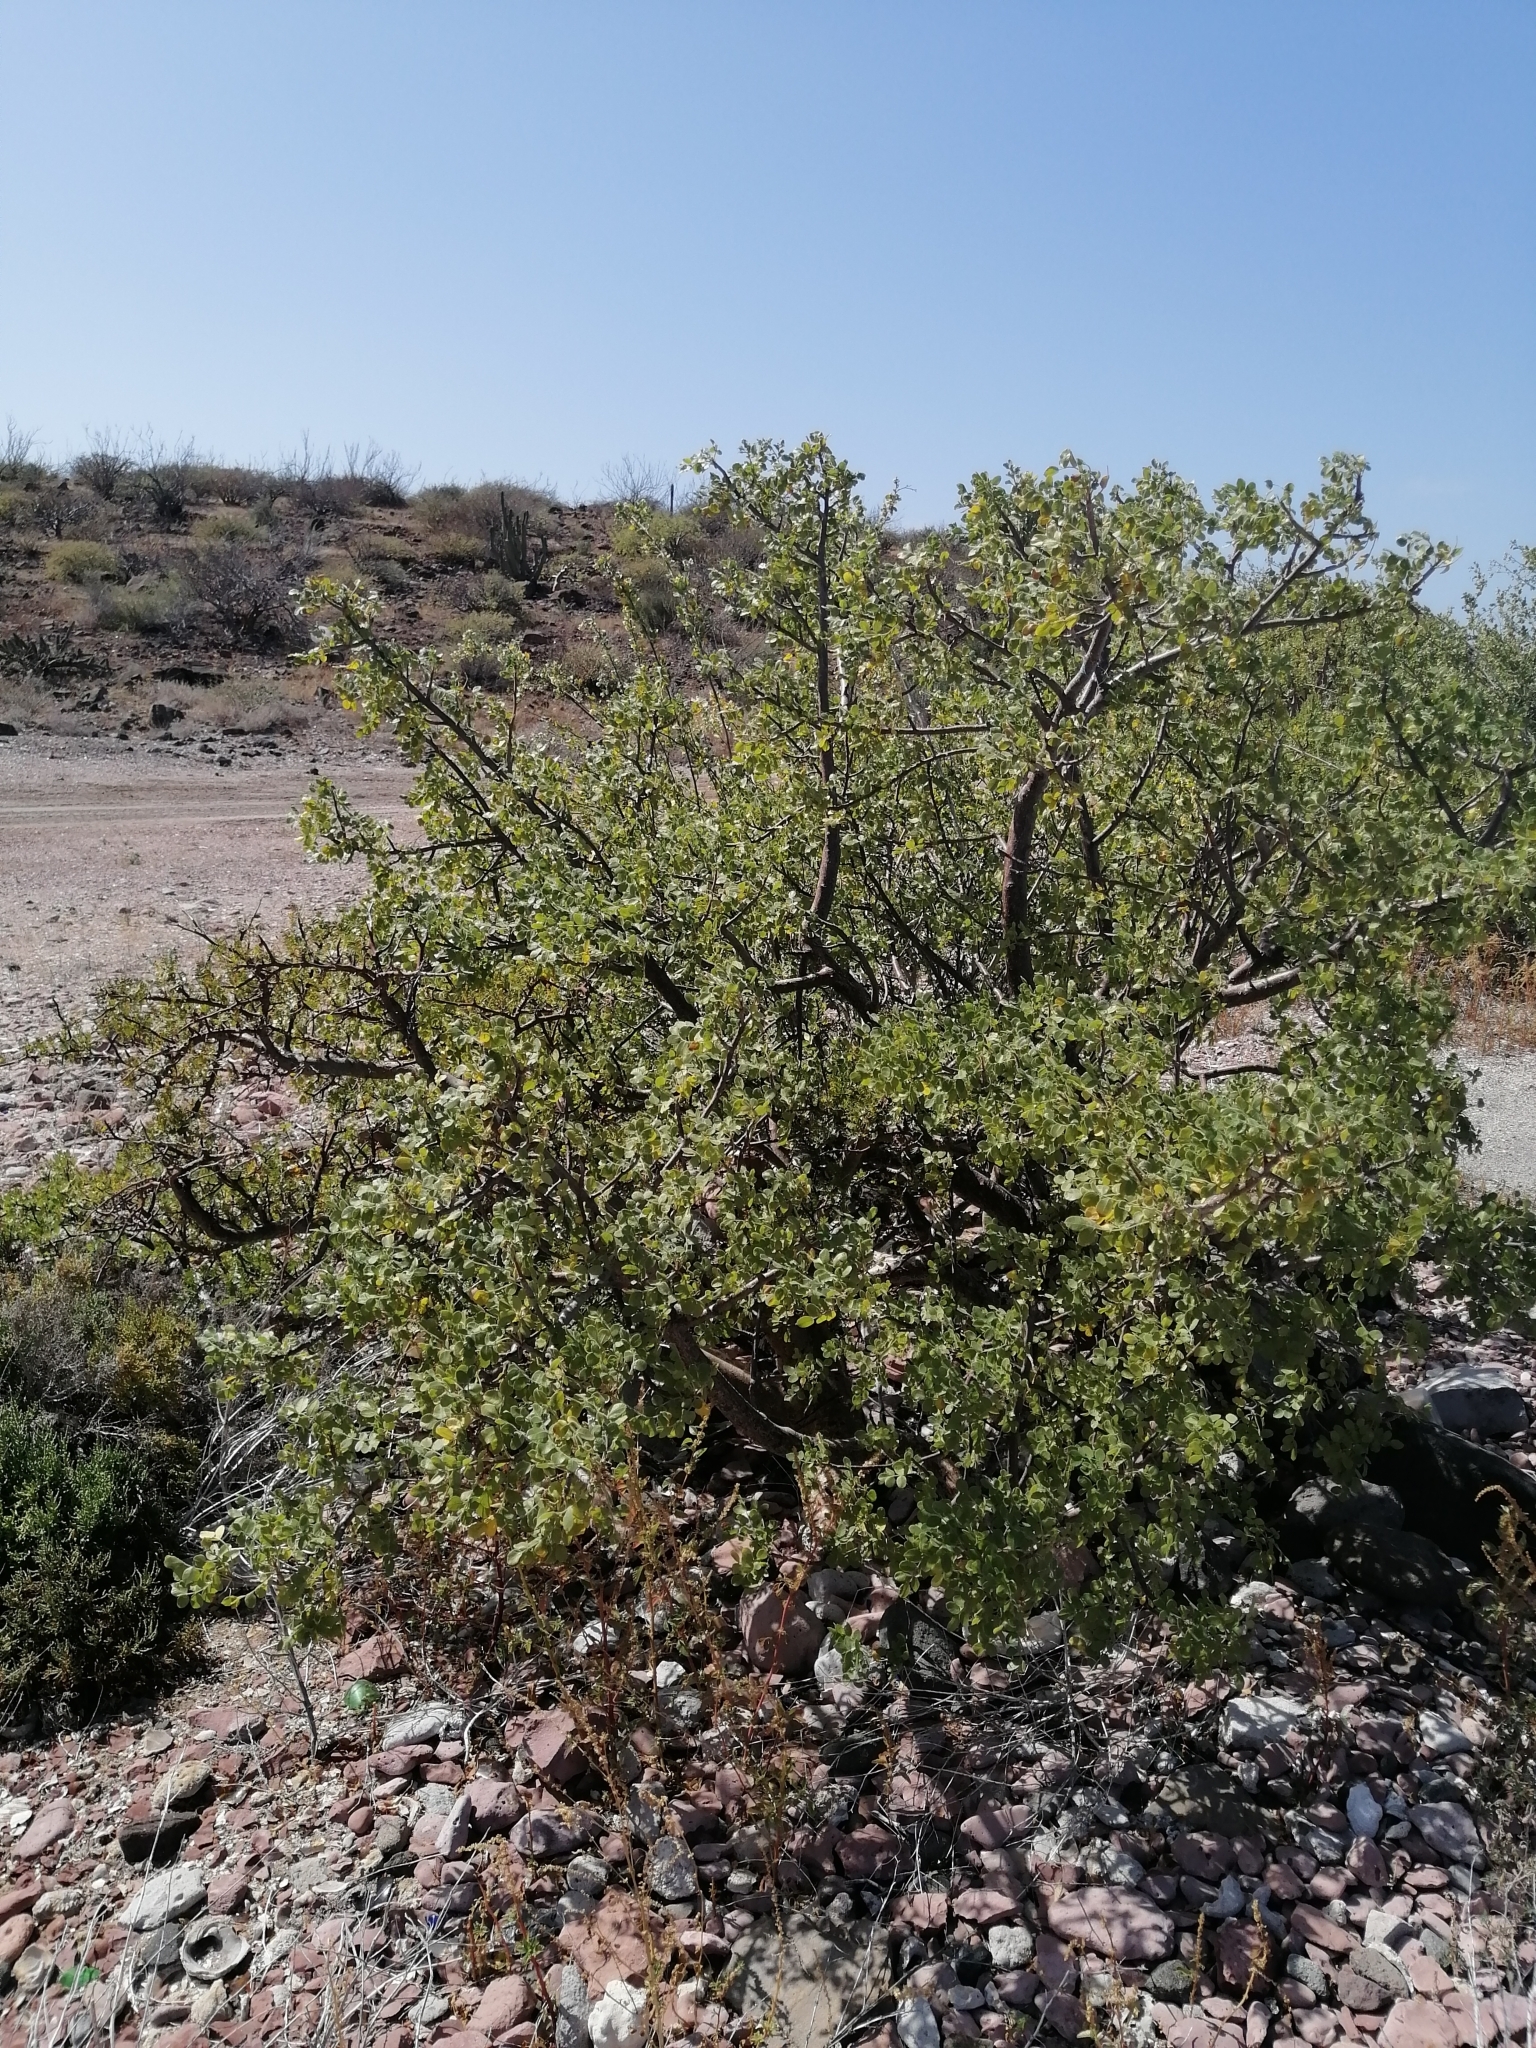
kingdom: Plantae
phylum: Tracheophyta
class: Magnoliopsida
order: Sapindales
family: Anacardiaceae
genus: Cyrtocarpa
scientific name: Cyrtocarpa edulis
